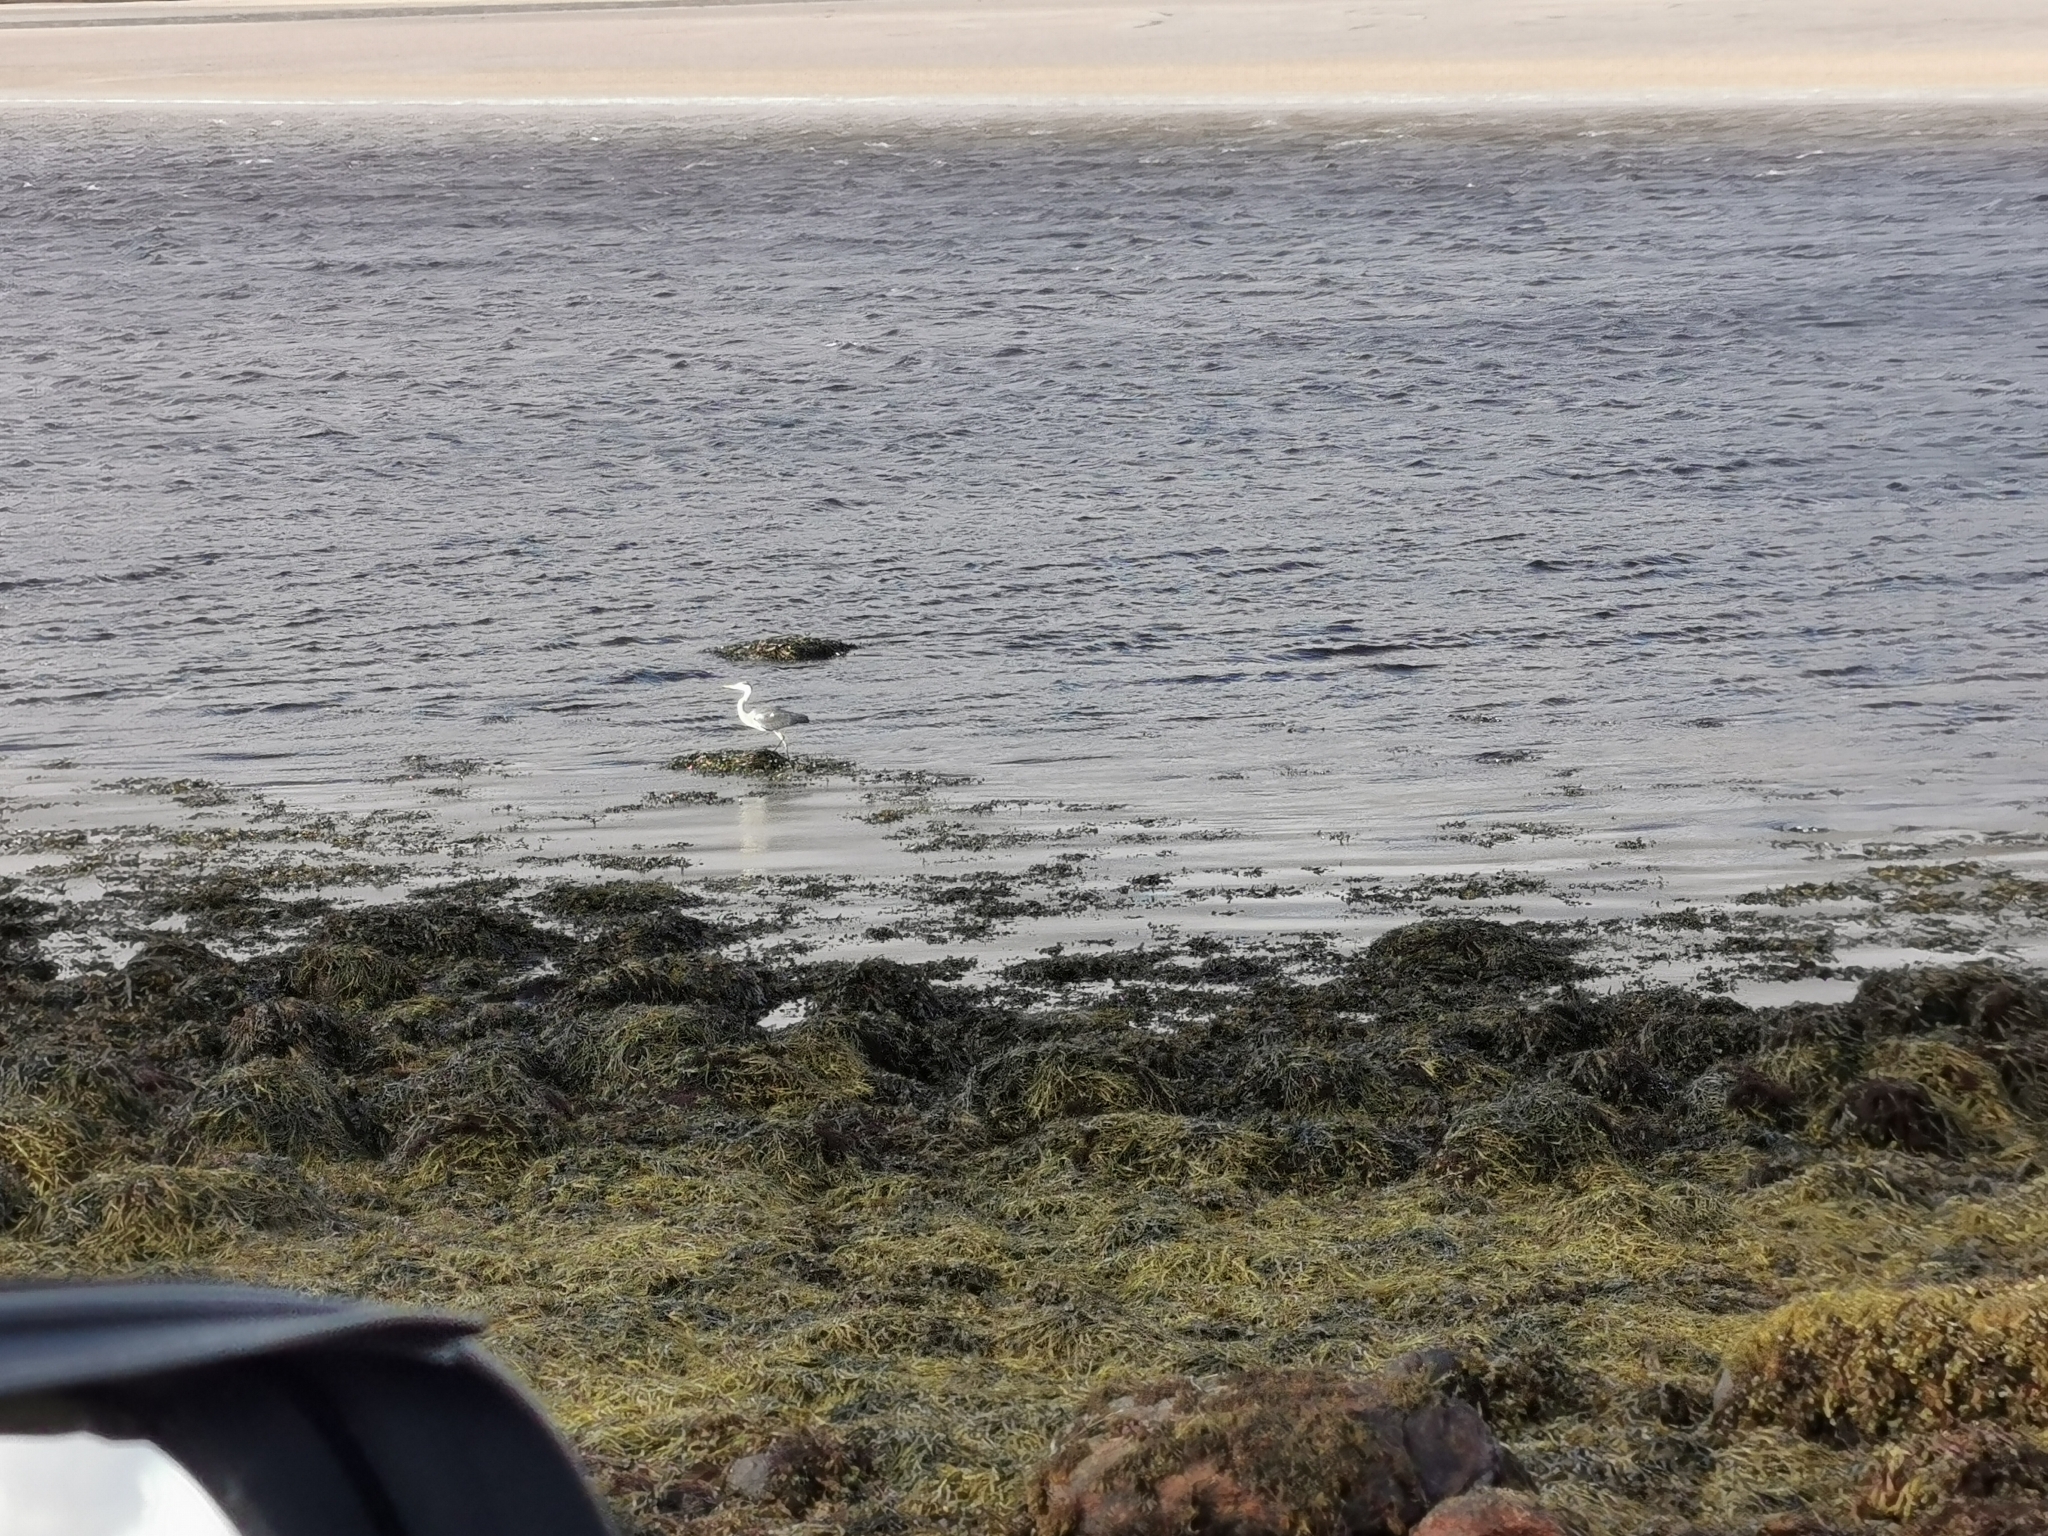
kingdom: Animalia
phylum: Chordata
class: Aves
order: Pelecaniformes
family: Ardeidae
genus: Ardea
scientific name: Ardea cinerea
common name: Grey heron
